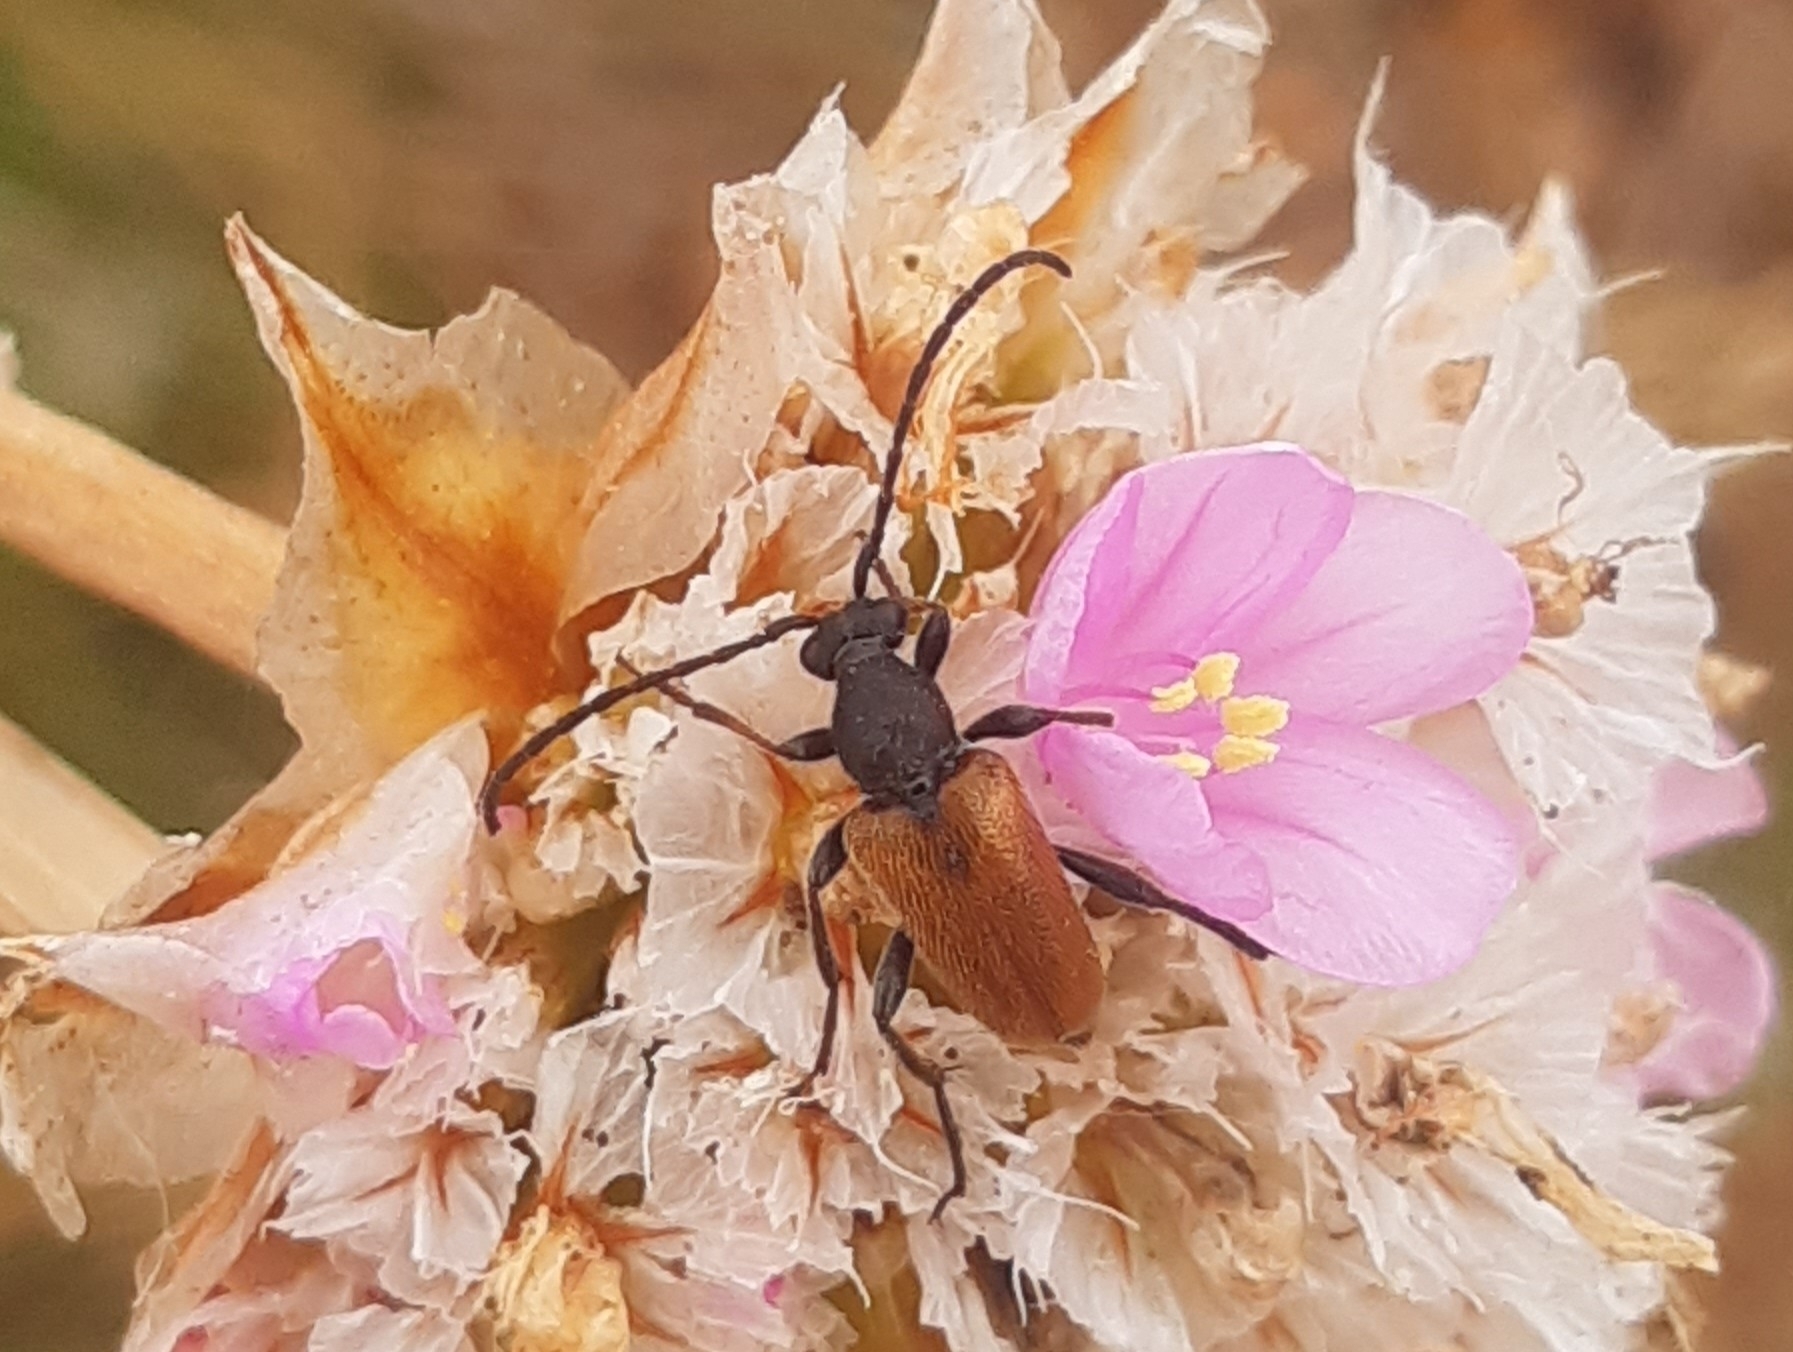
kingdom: Animalia
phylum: Arthropoda
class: Insecta
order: Coleoptera
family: Cerambycidae
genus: Pseudovadonia
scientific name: Pseudovadonia livida
